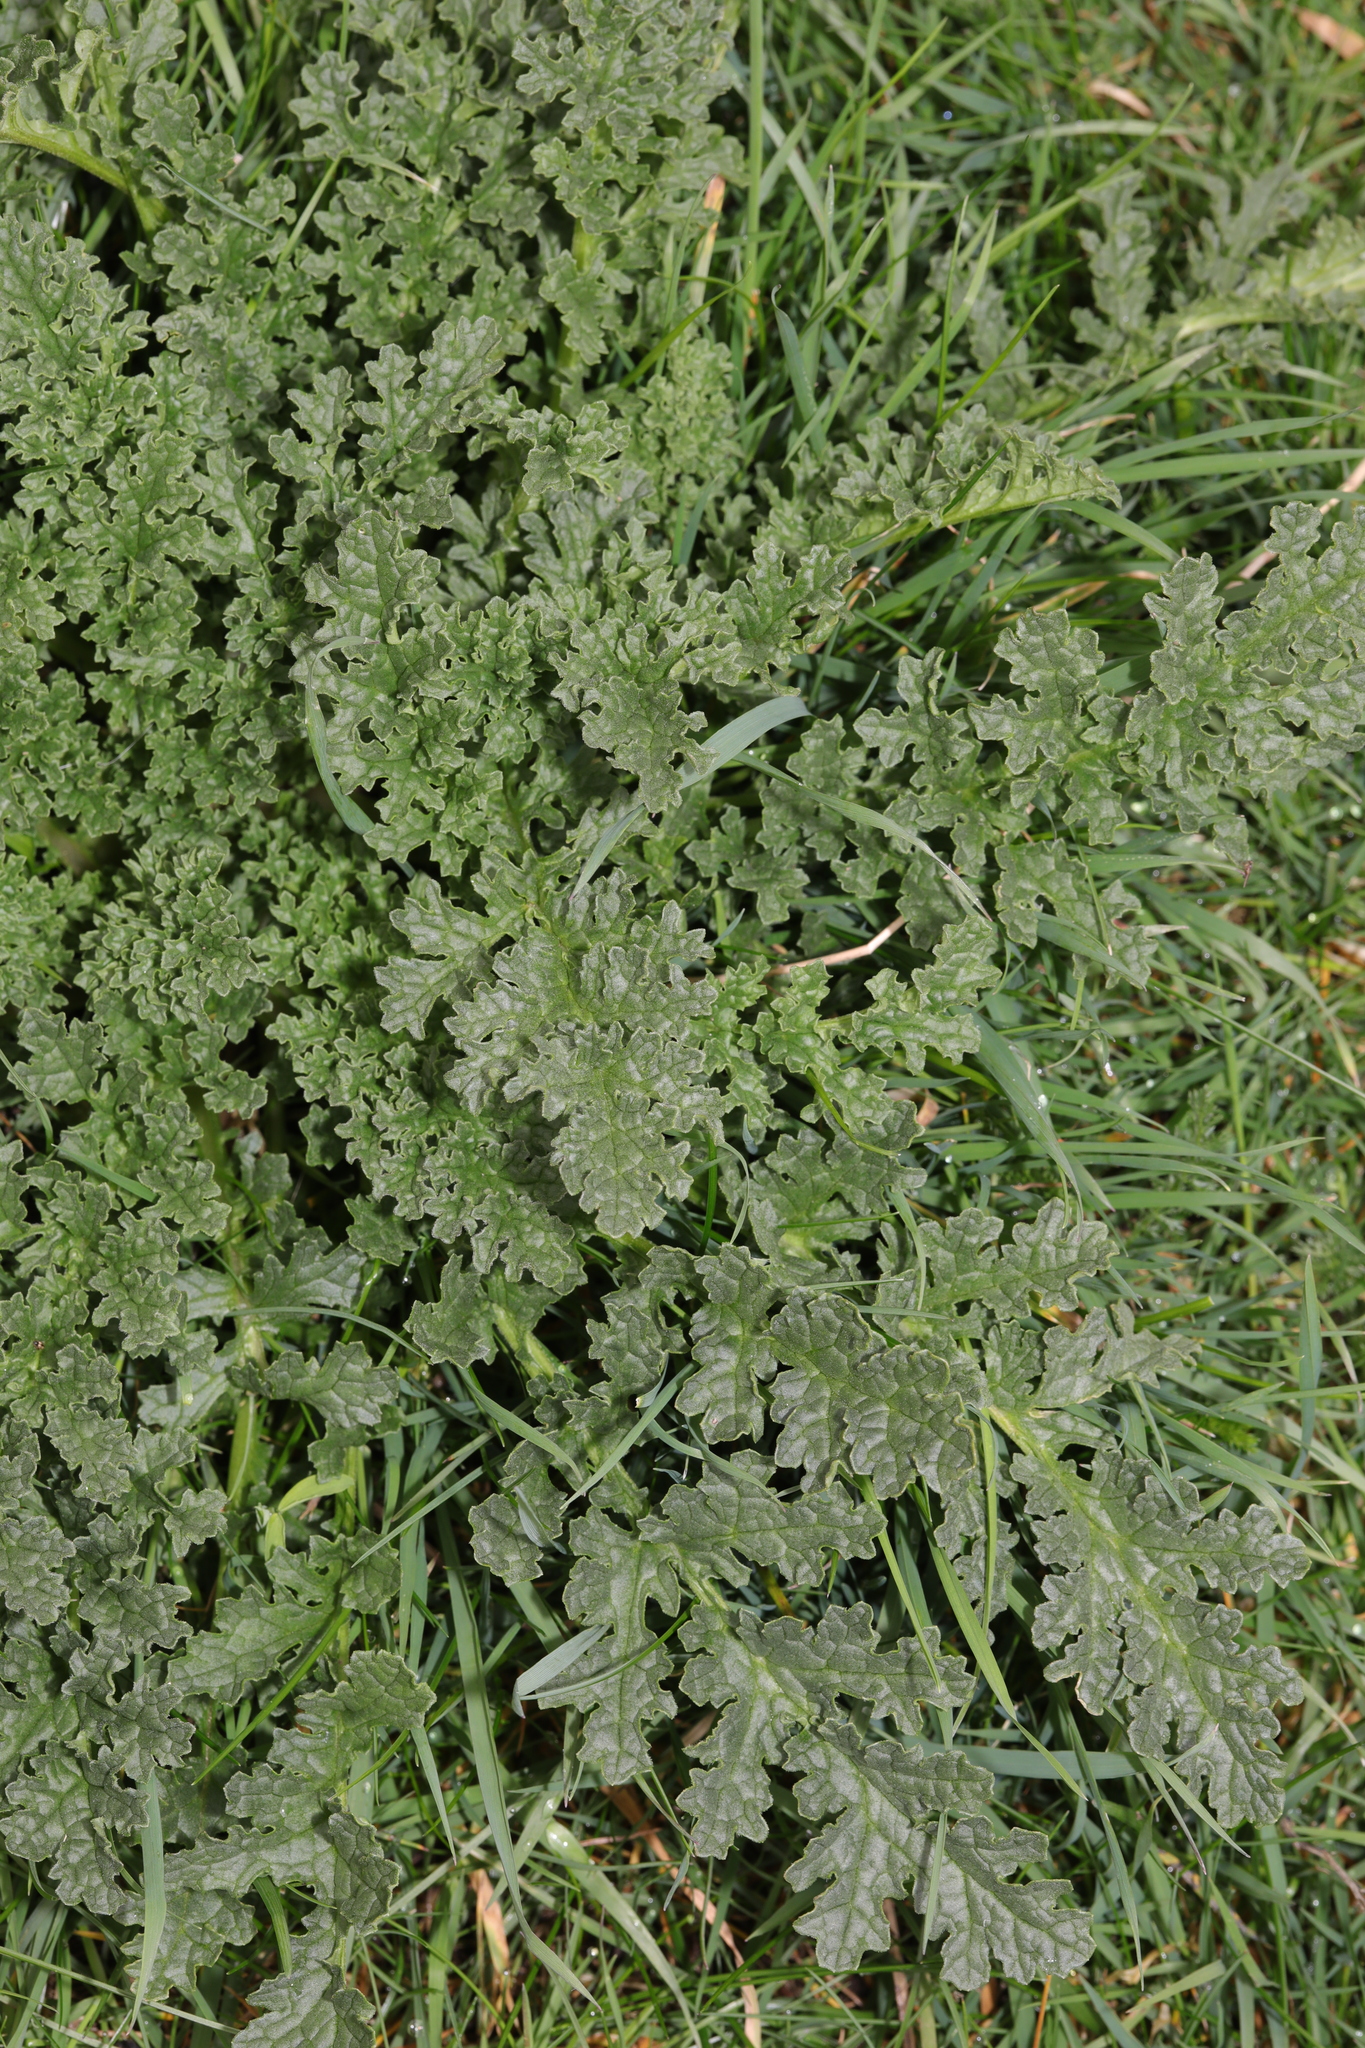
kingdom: Plantae
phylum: Tracheophyta
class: Magnoliopsida
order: Asterales
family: Asteraceae
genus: Jacobaea
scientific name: Jacobaea vulgaris
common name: Stinking willie
